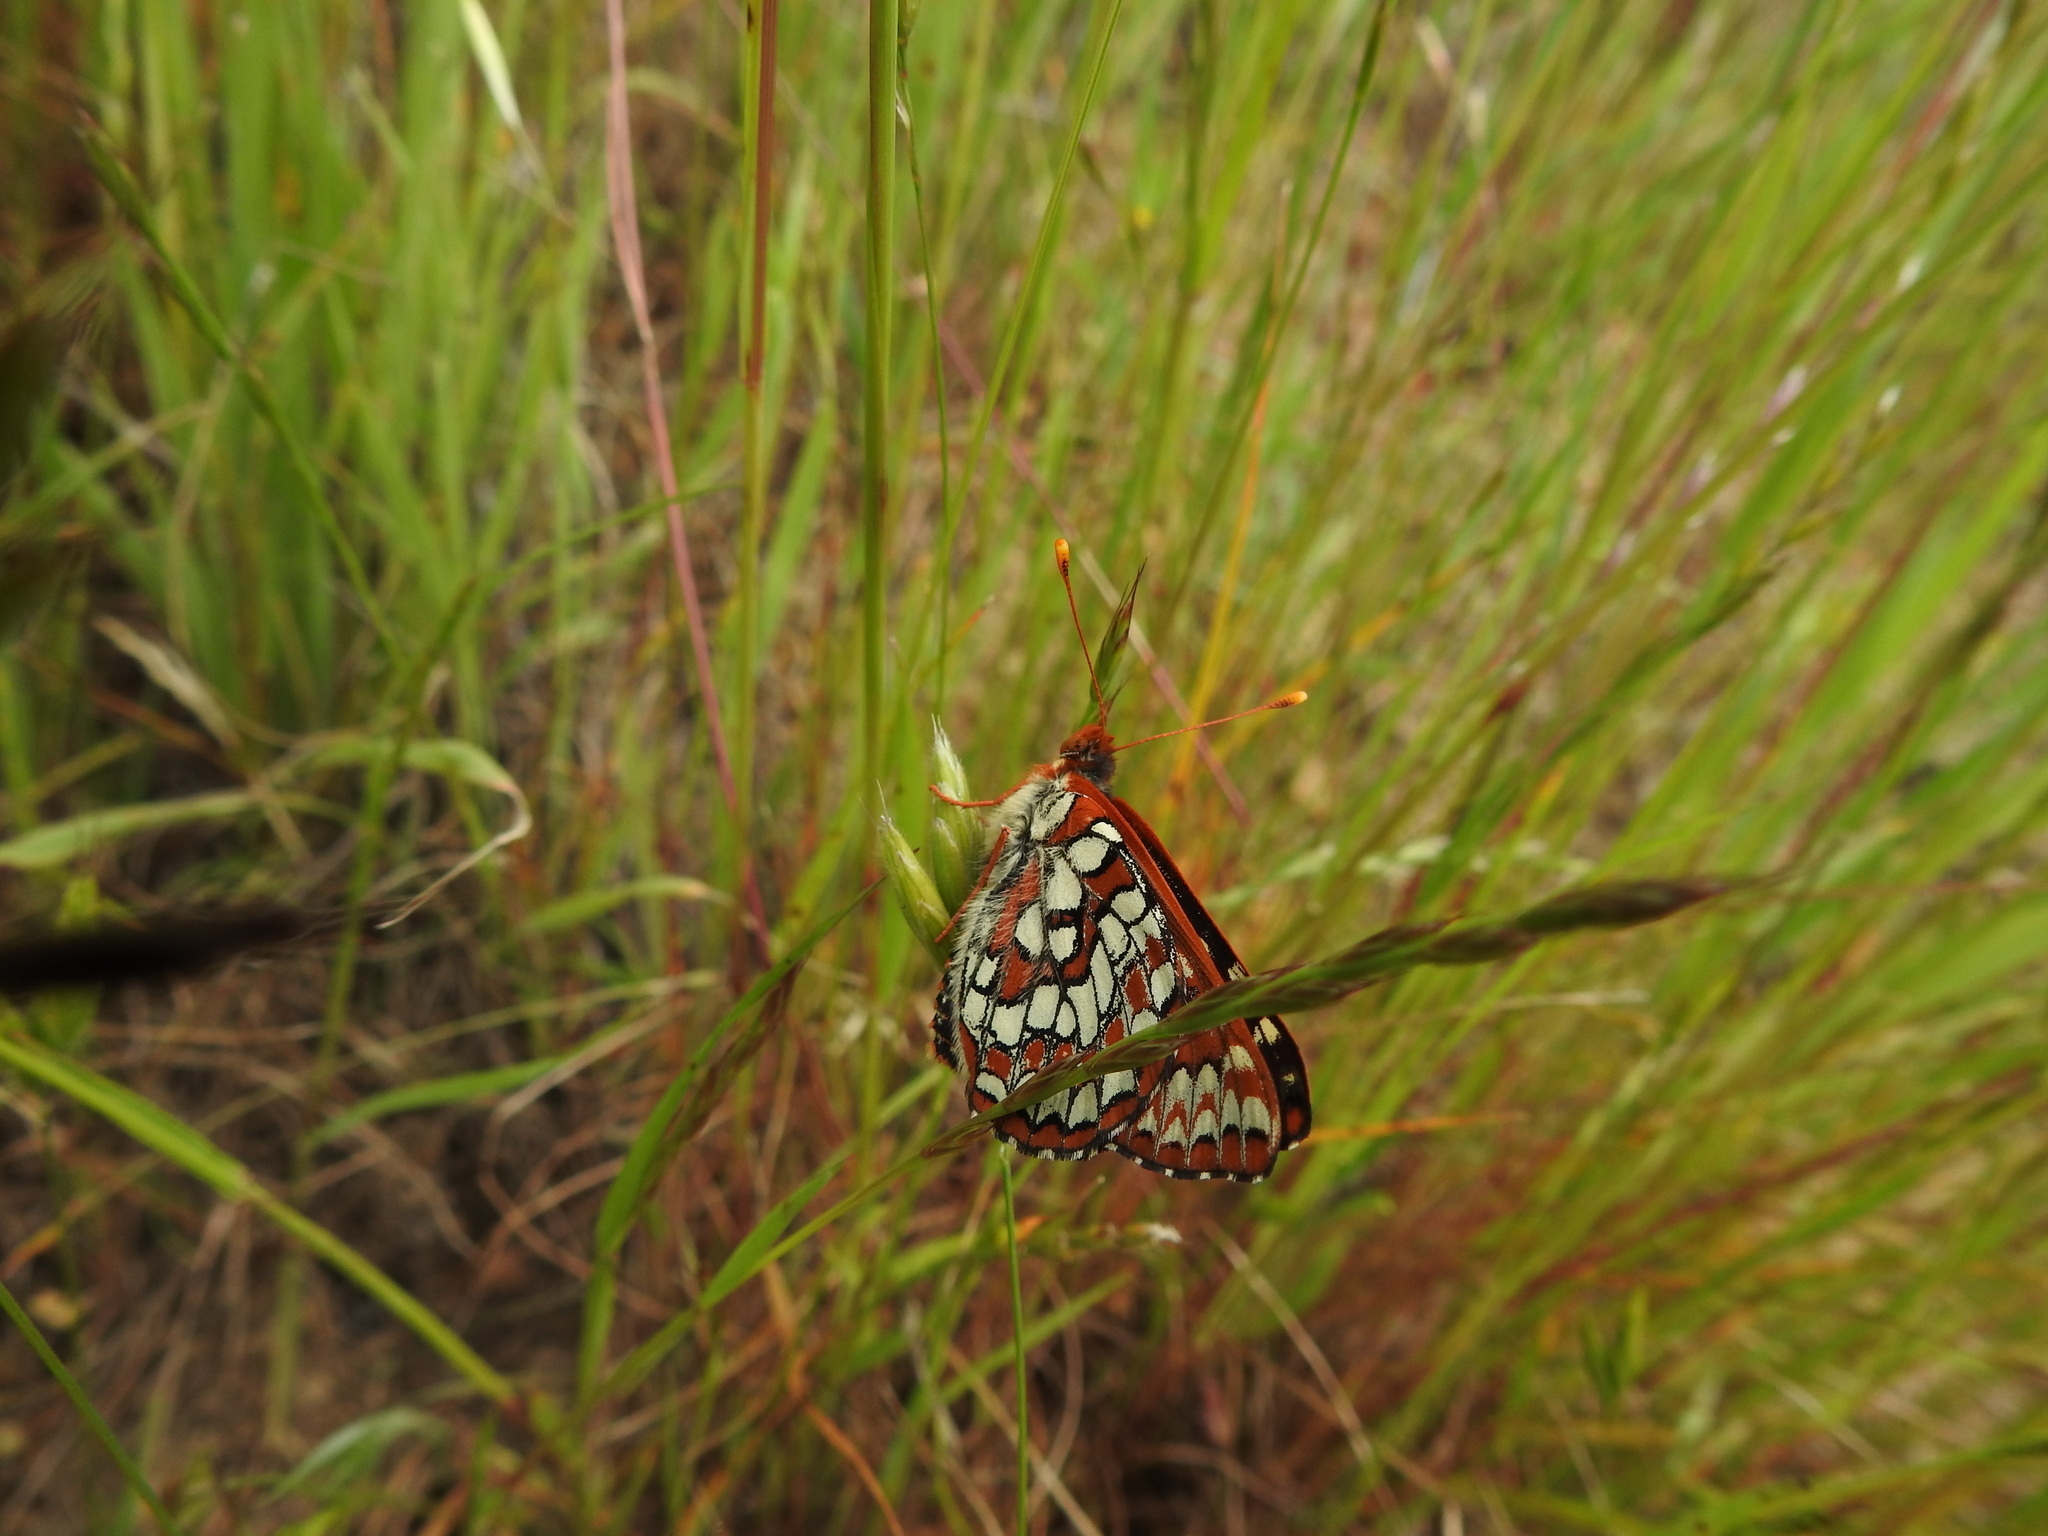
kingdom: Animalia
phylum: Arthropoda
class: Insecta
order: Lepidoptera
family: Nymphalidae
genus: Occidryas
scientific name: Occidryas chalcedona
